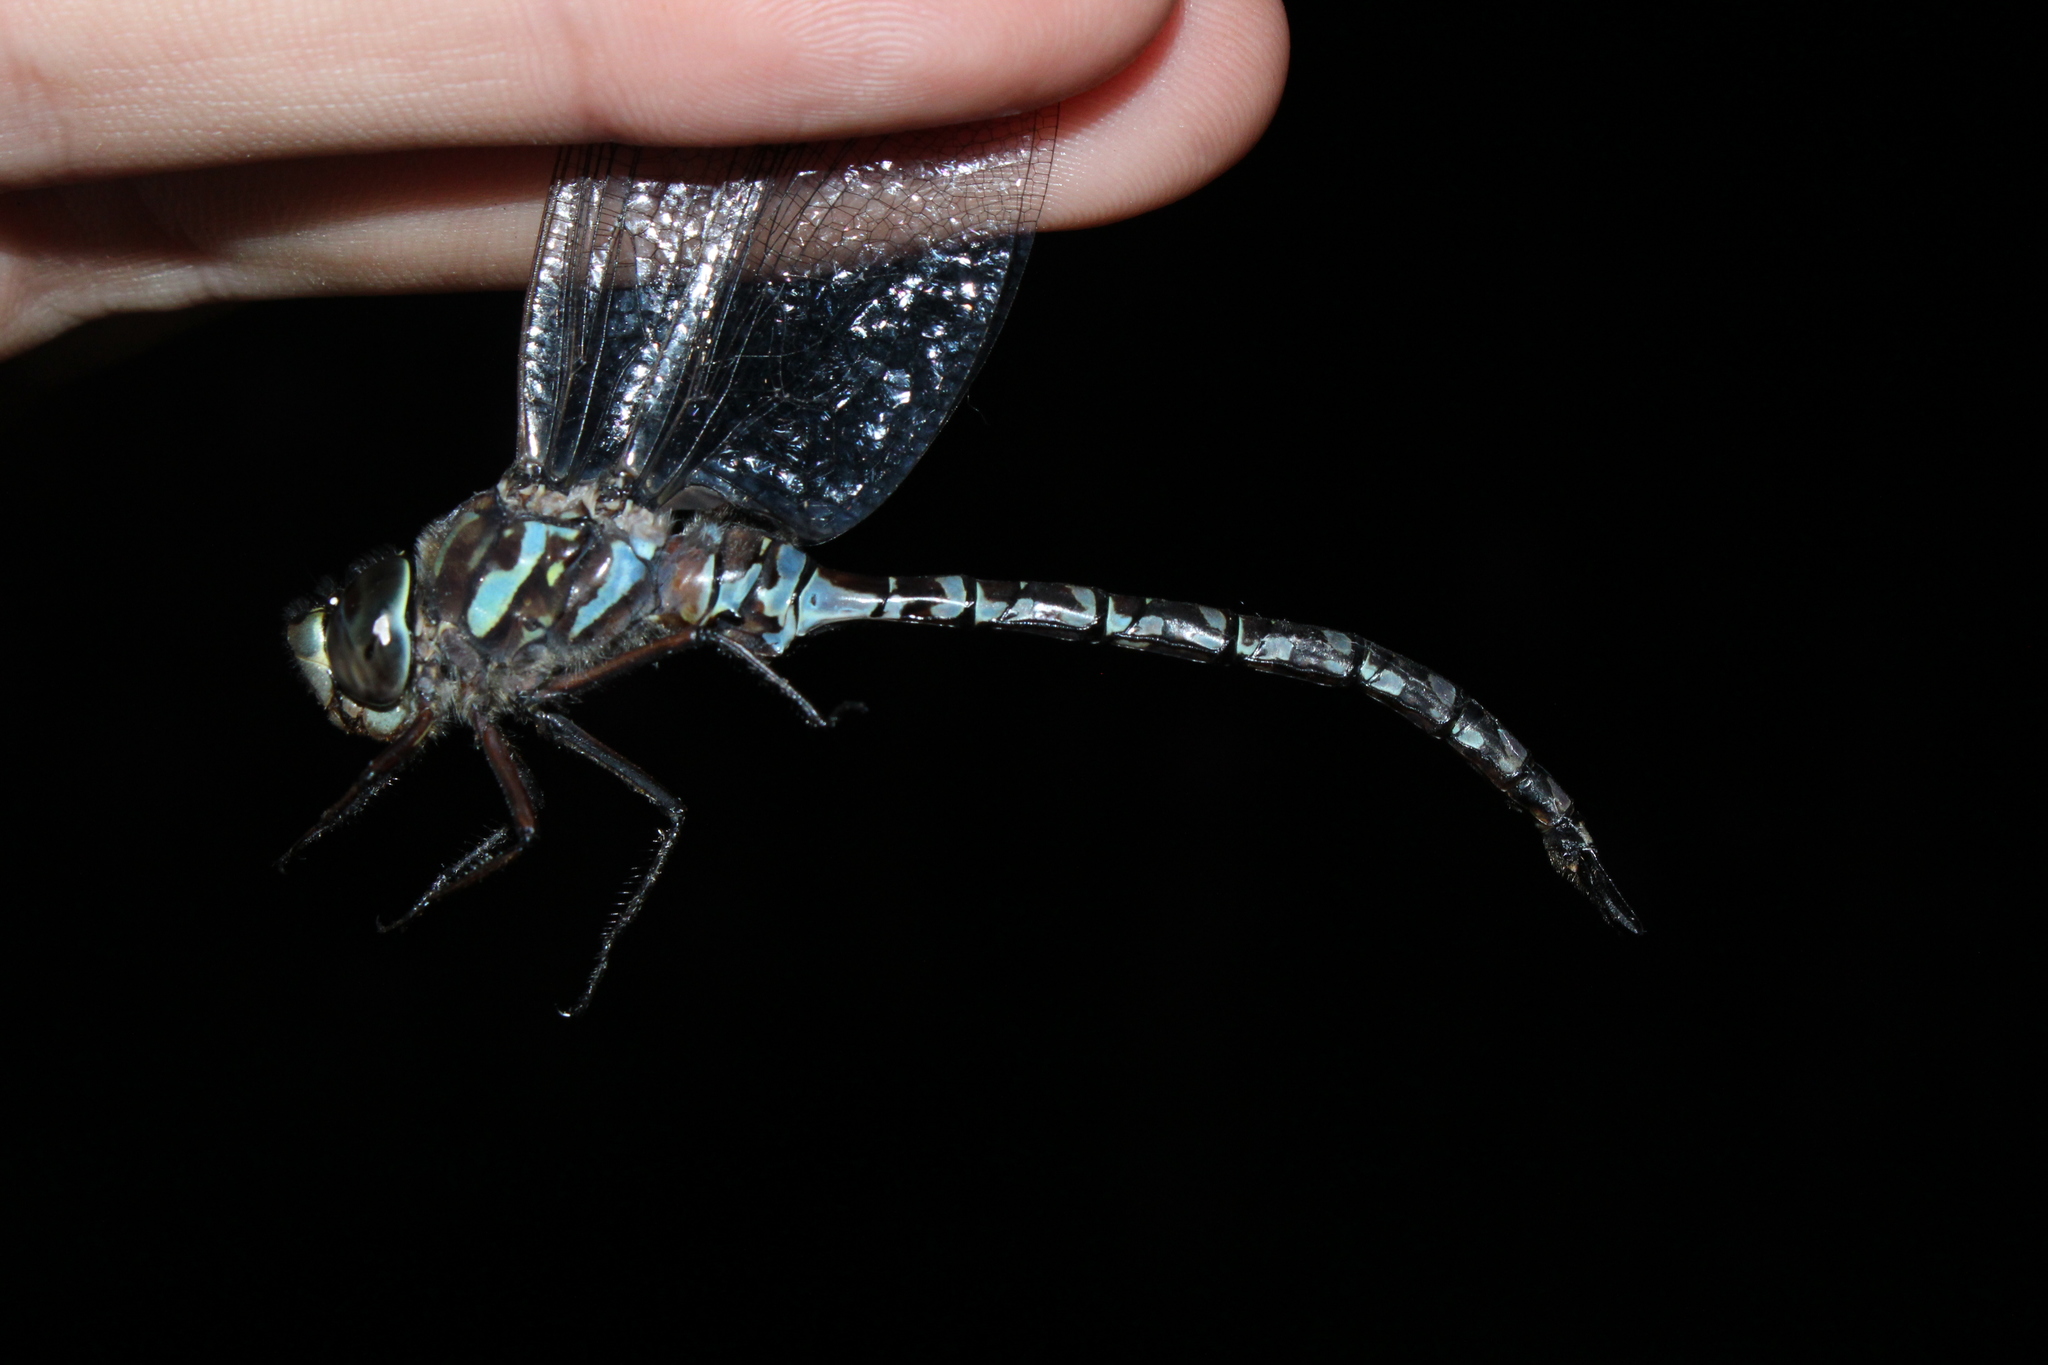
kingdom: Animalia
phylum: Arthropoda
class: Insecta
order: Odonata
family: Aeshnidae
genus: Aeshna
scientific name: Aeshna canadensis
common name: Canada darner
